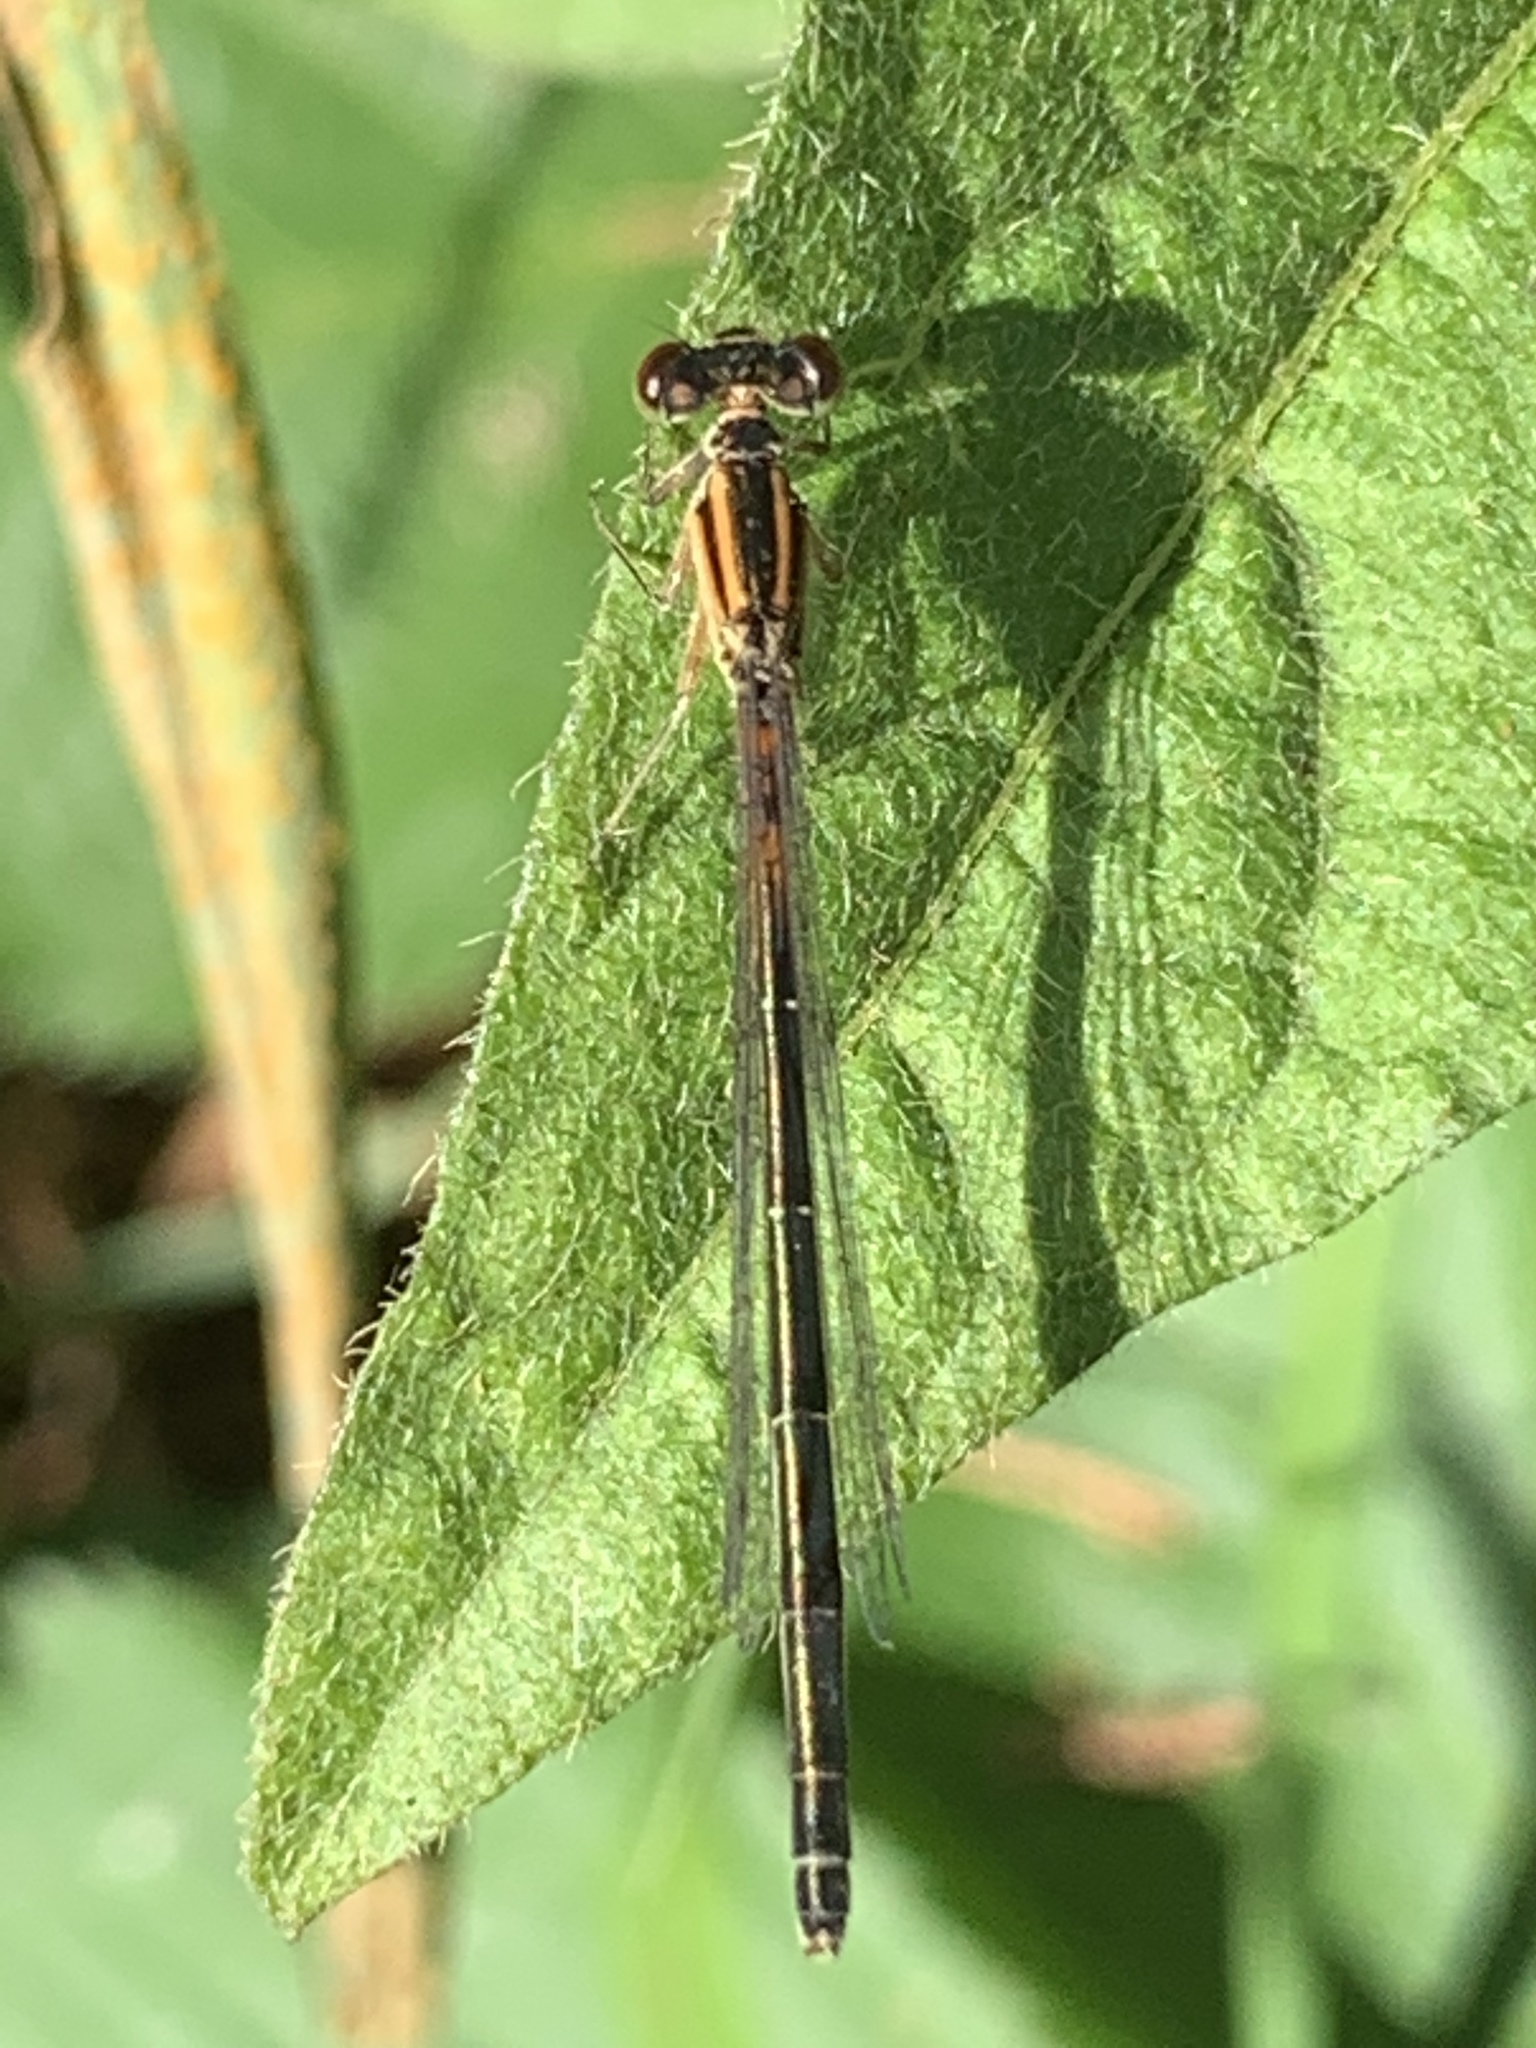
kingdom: Animalia
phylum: Arthropoda
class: Insecta
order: Odonata
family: Coenagrionidae
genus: Ischnura
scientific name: Ischnura verticalis
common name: Eastern forktail
